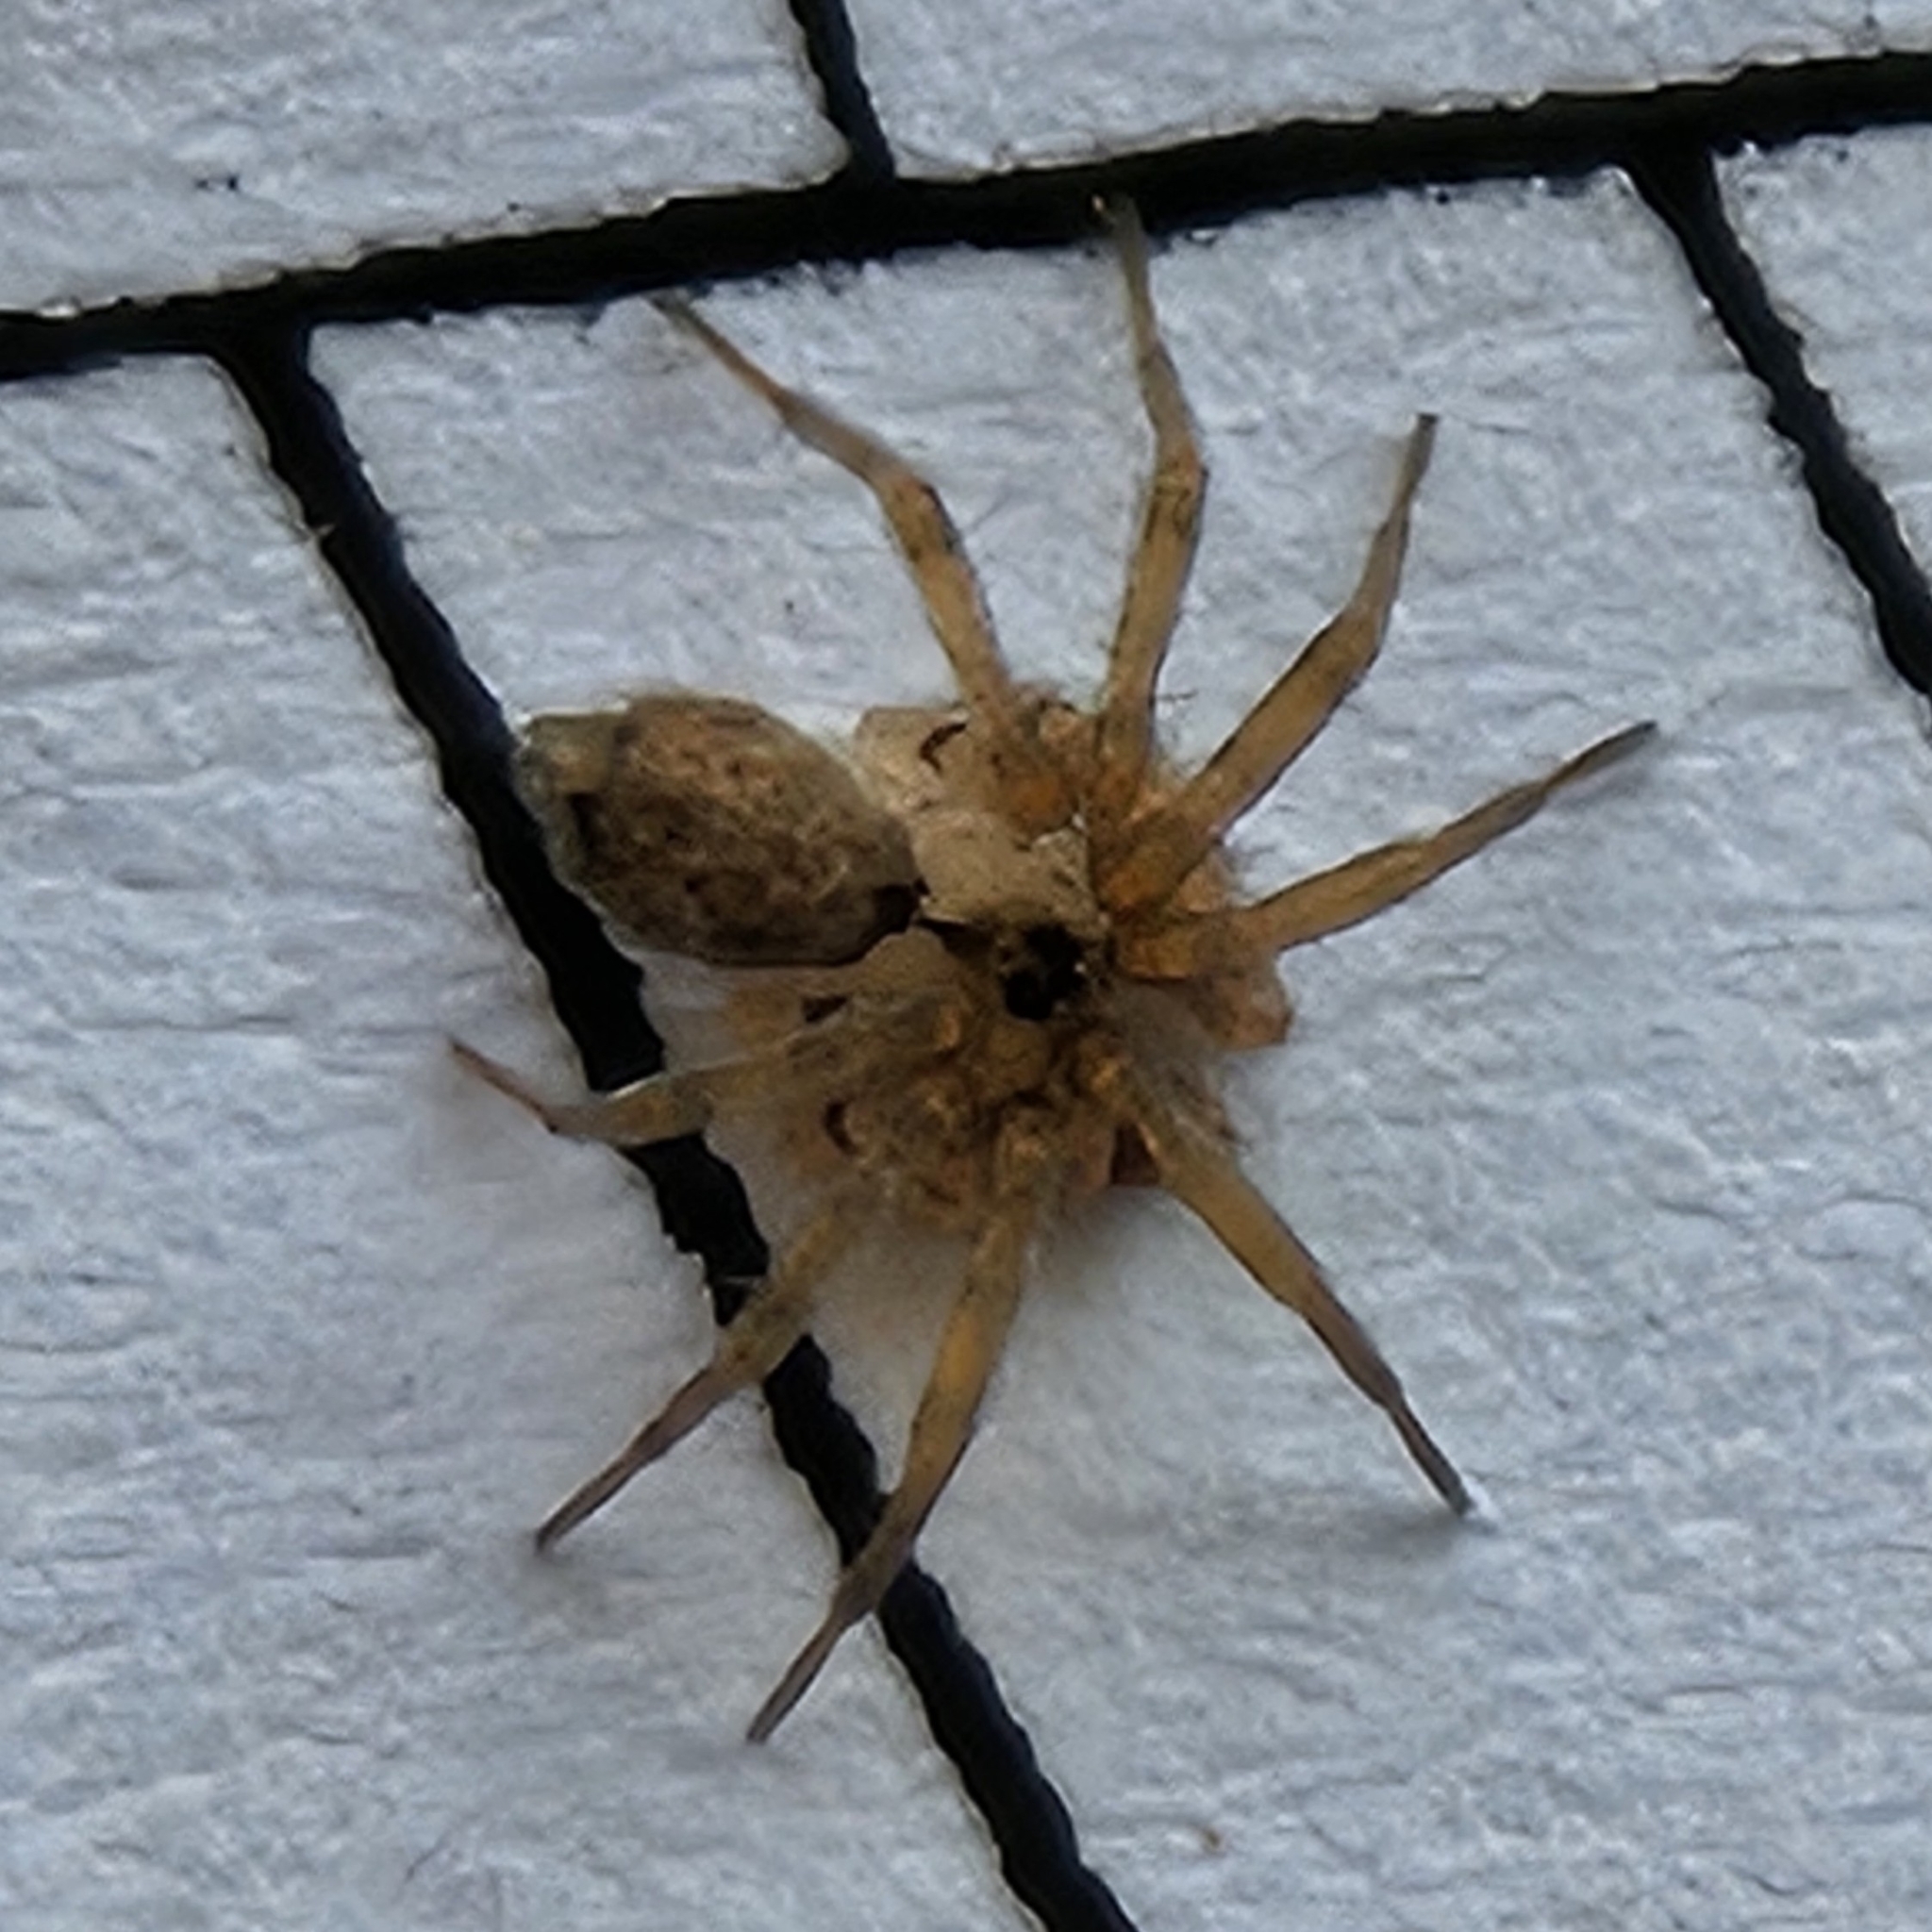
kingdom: Animalia
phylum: Arthropoda
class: Arachnida
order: Araneae
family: Oecobiidae
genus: Oecobius
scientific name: Oecobius navus
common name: Flatmesh weaver
